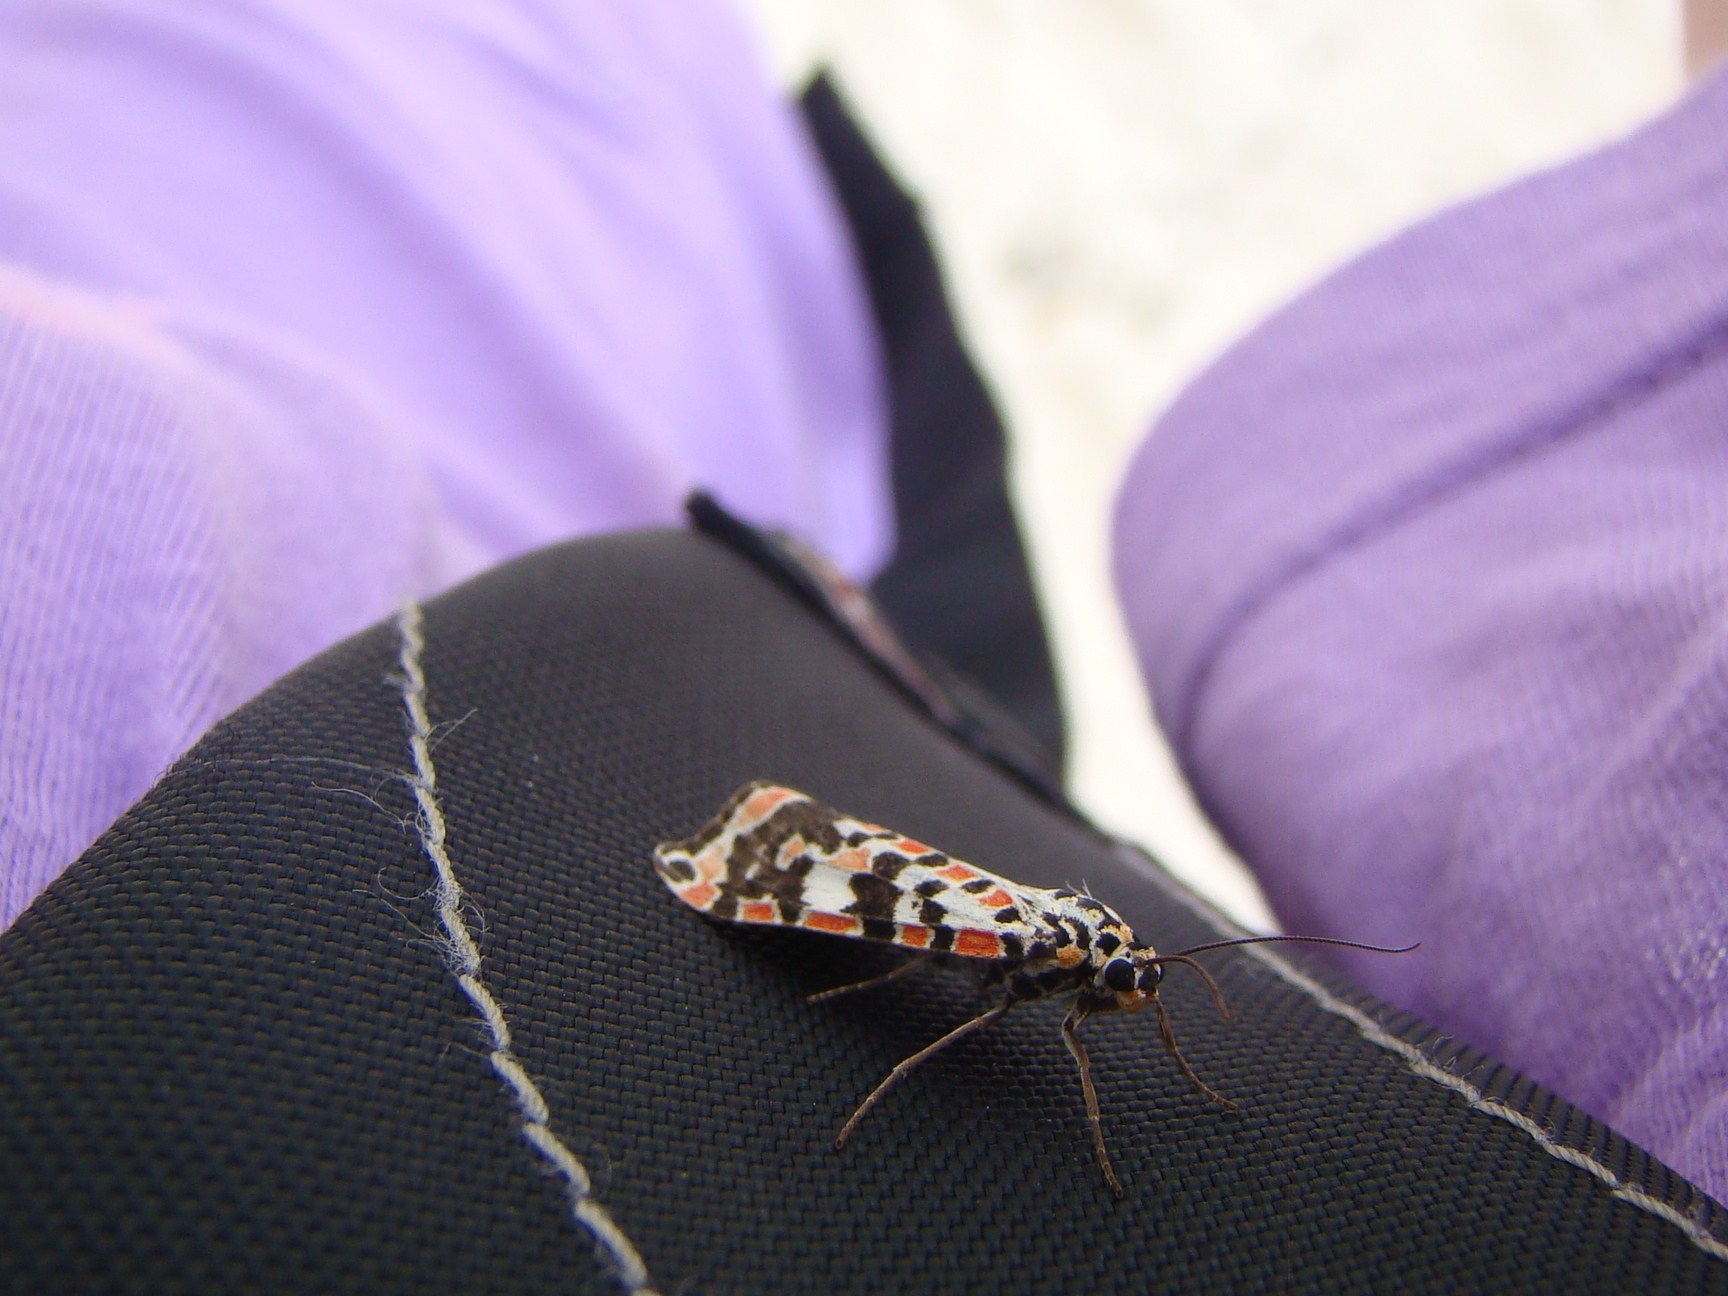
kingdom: Animalia
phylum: Arthropoda
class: Insecta
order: Lepidoptera
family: Erebidae
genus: Utetheisa
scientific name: Utetheisa salomonis
